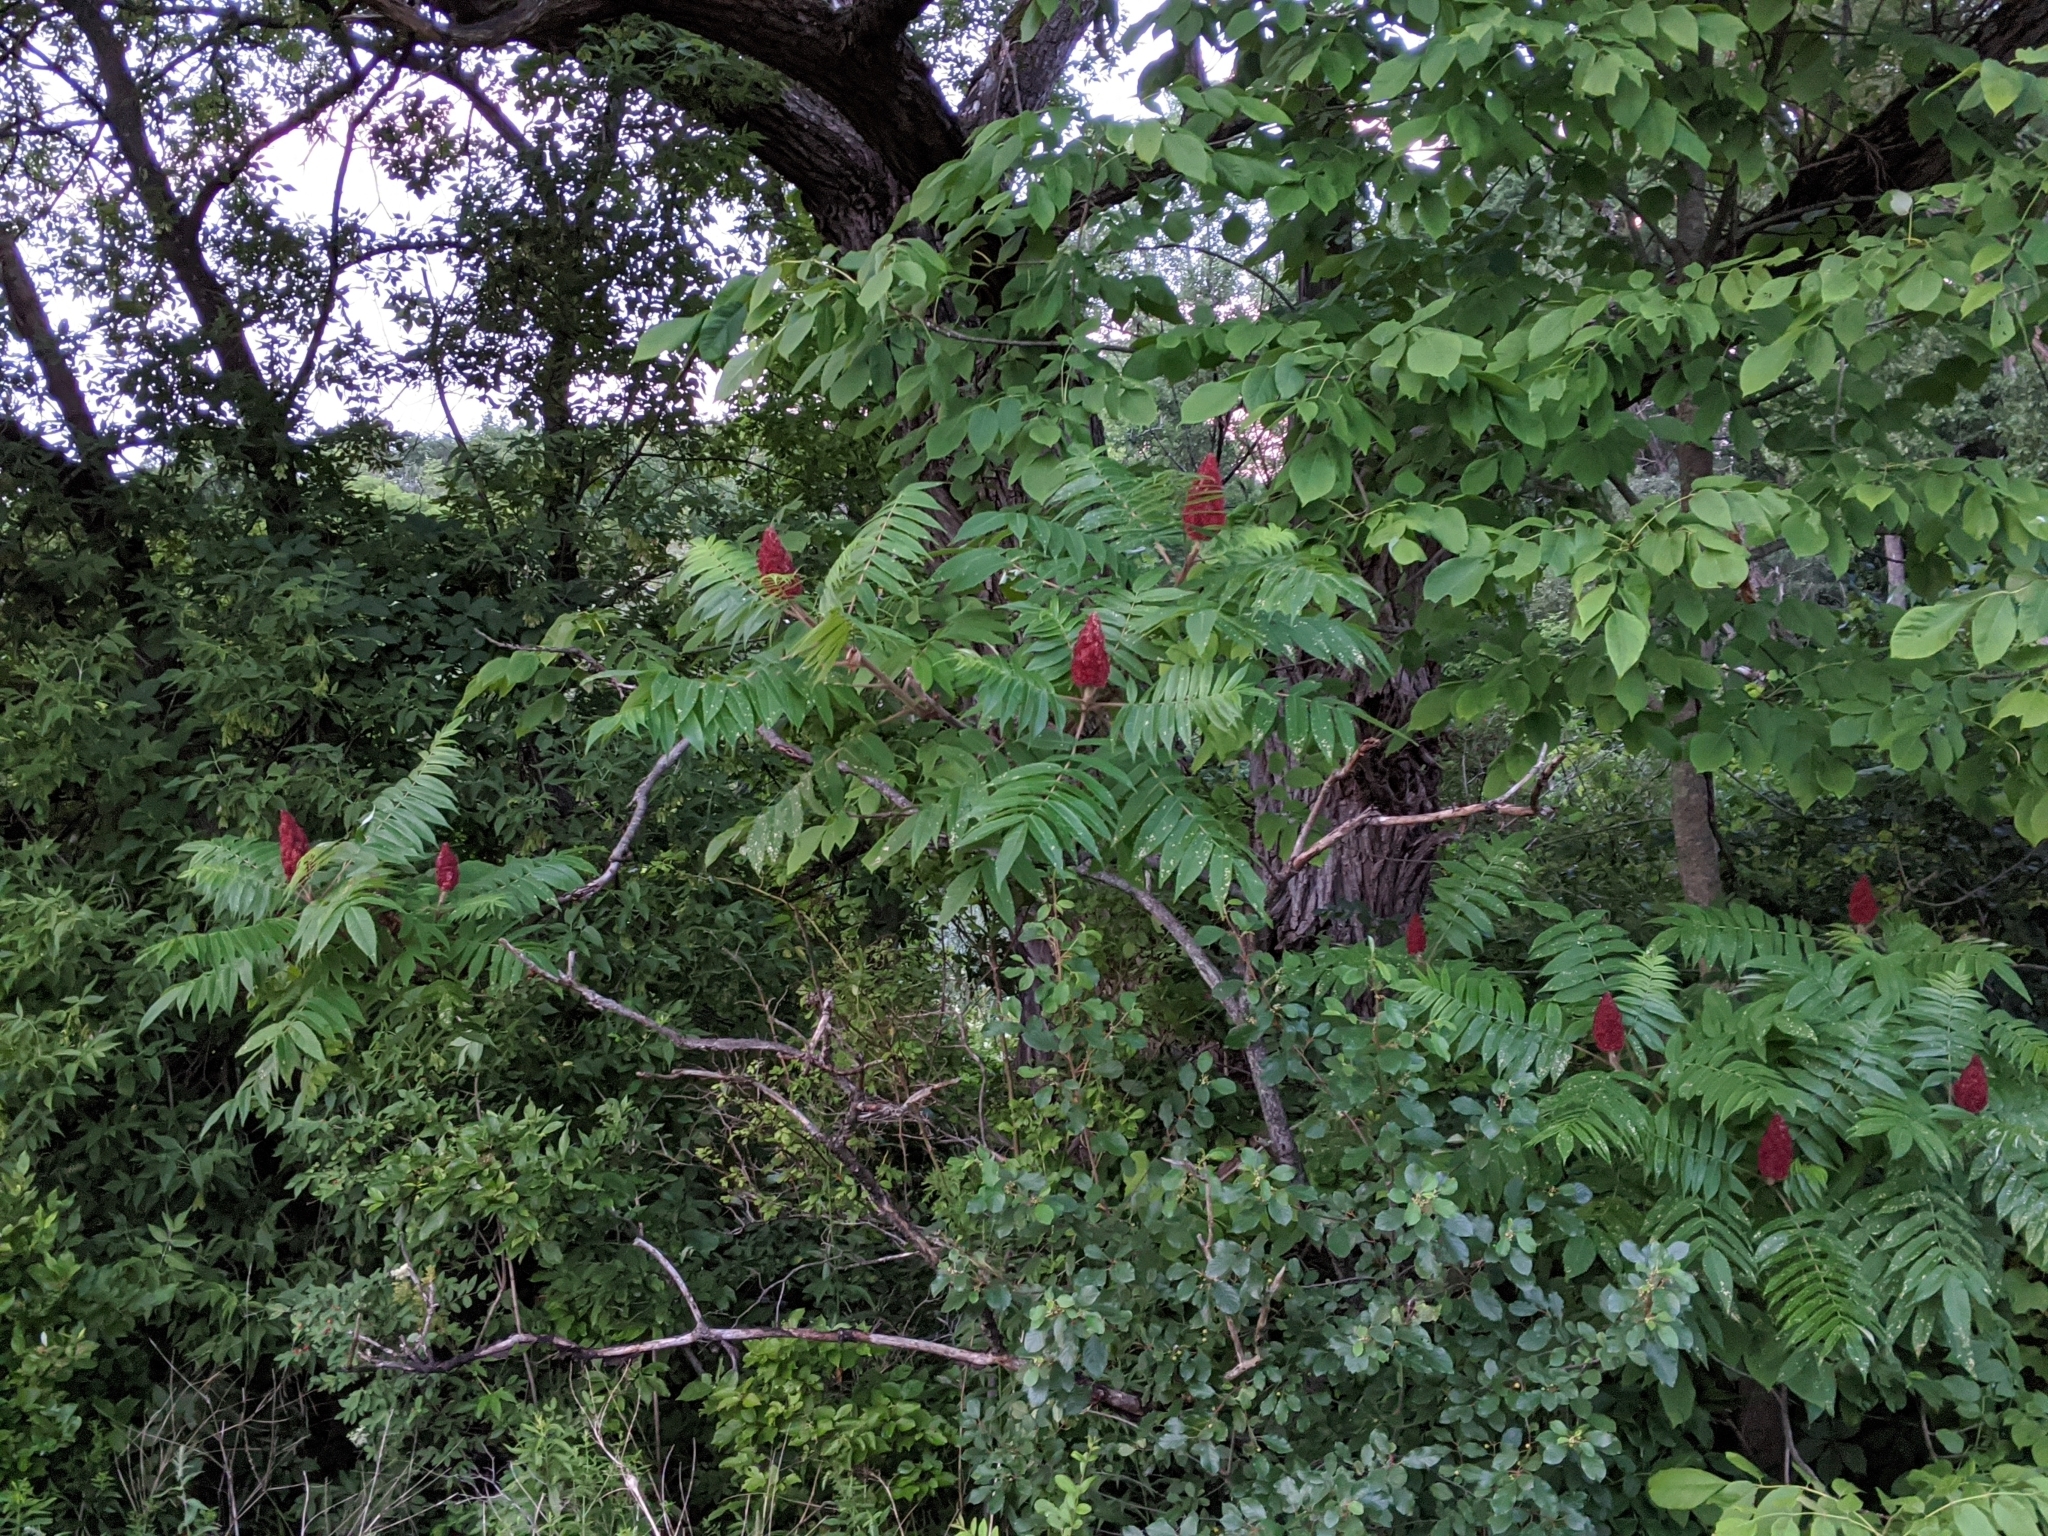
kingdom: Plantae
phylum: Tracheophyta
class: Magnoliopsida
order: Sapindales
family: Anacardiaceae
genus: Rhus
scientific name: Rhus typhina
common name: Staghorn sumac
